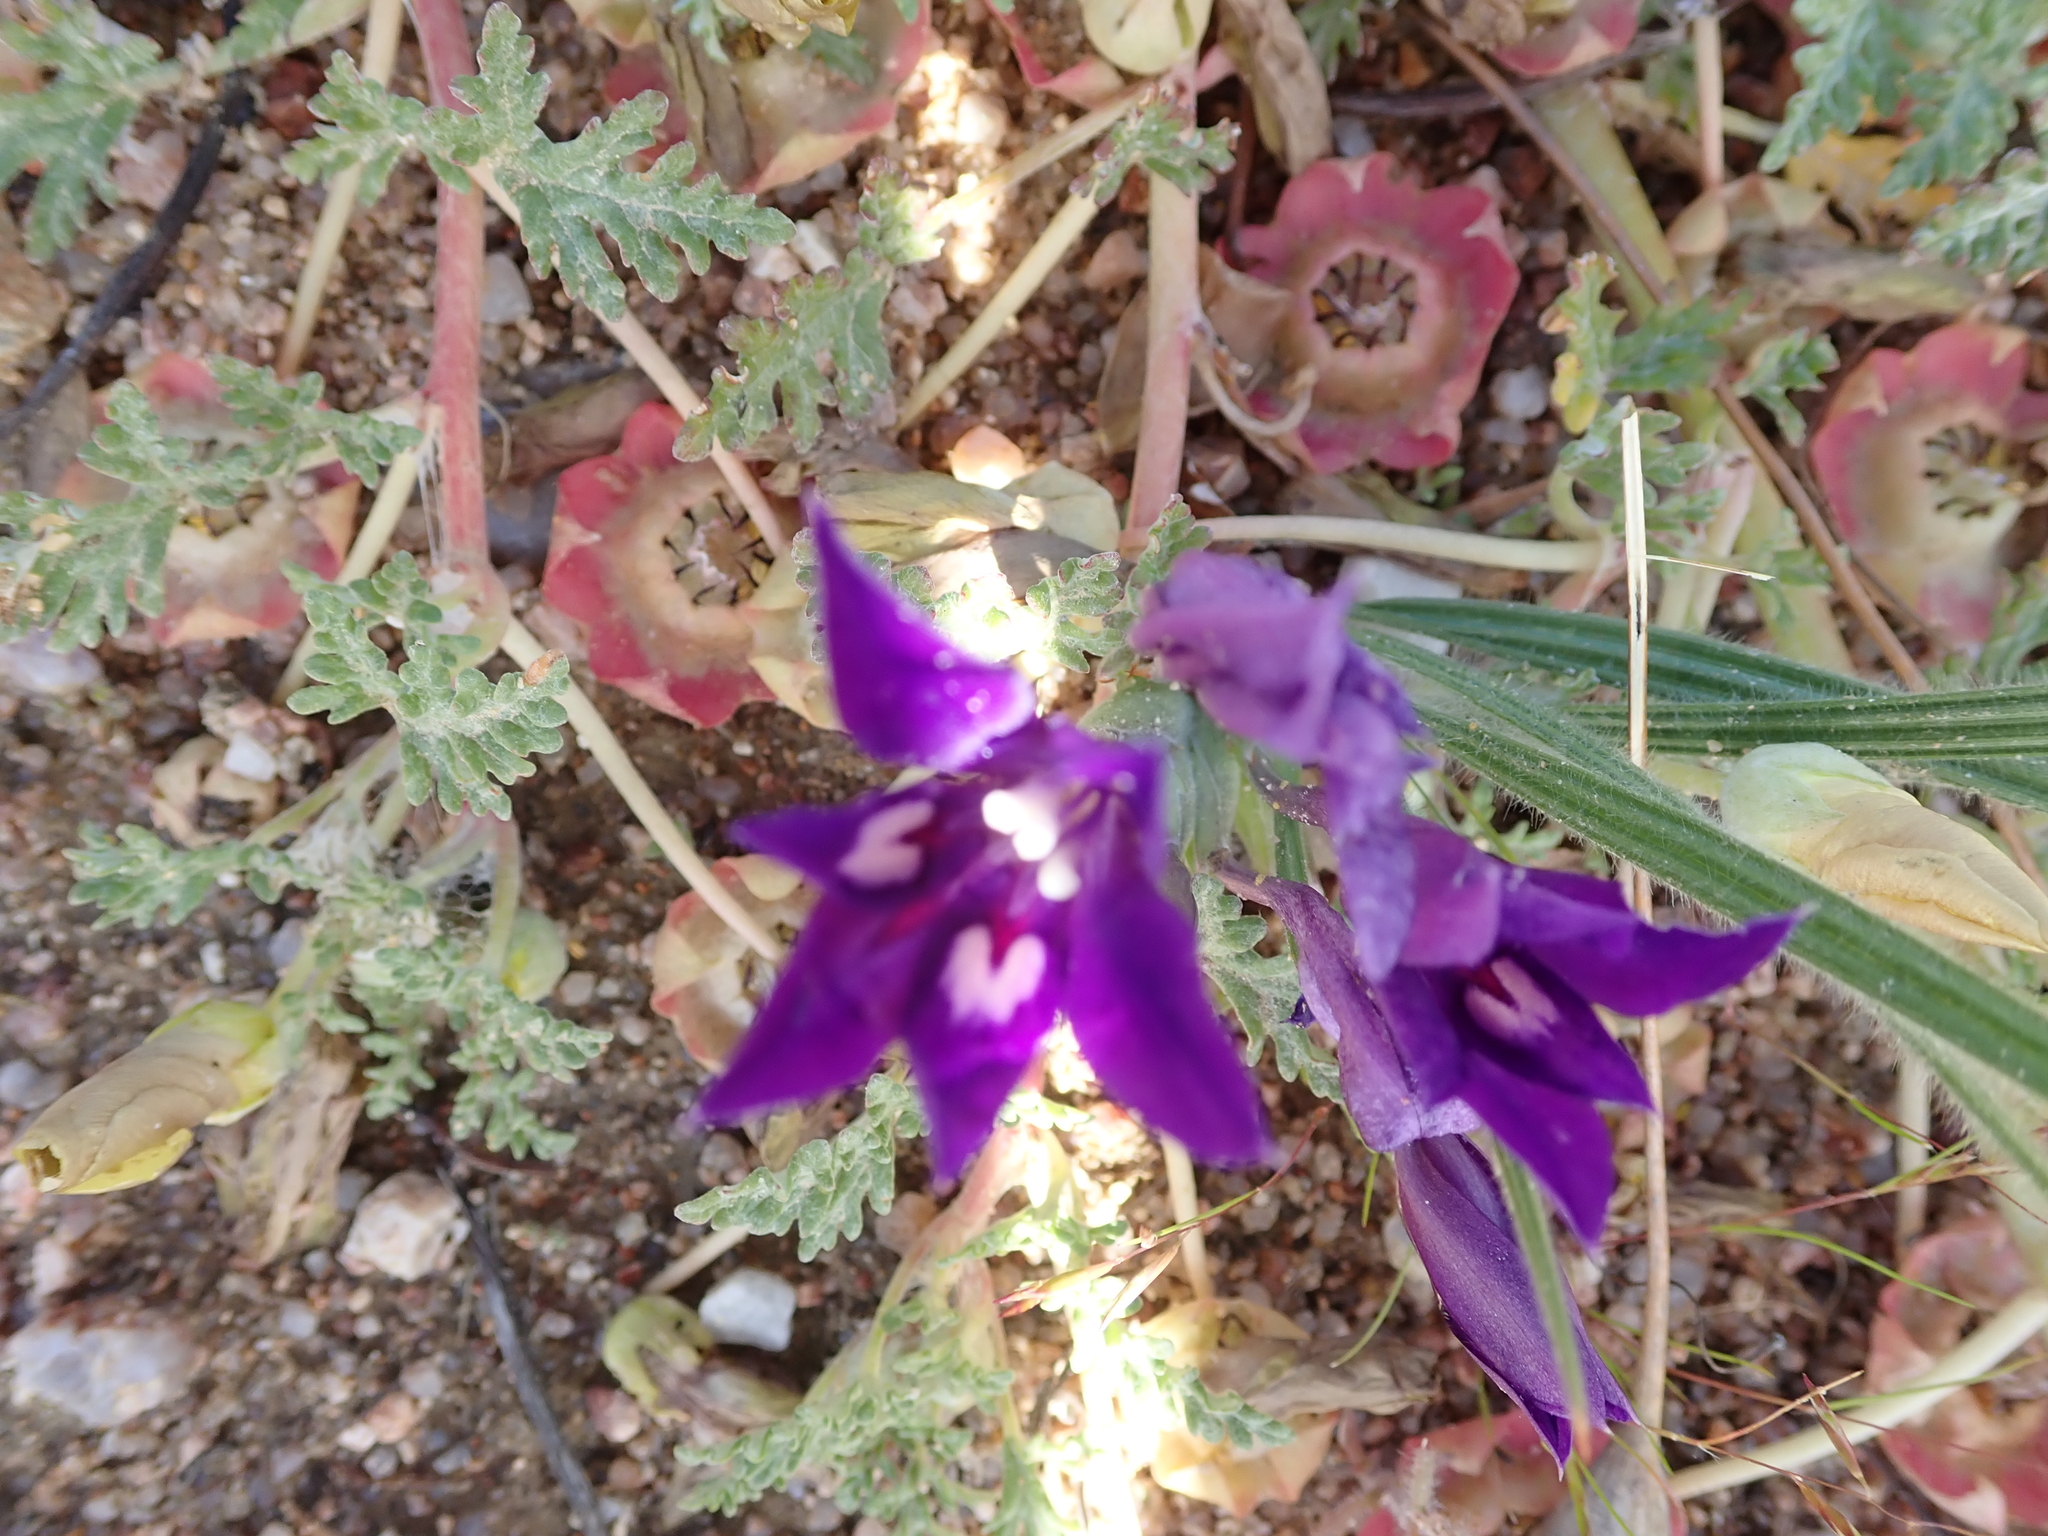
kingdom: Plantae
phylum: Tracheophyta
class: Magnoliopsida
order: Malvales
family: Neuradaceae
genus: Grielum
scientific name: Grielum humifusum
